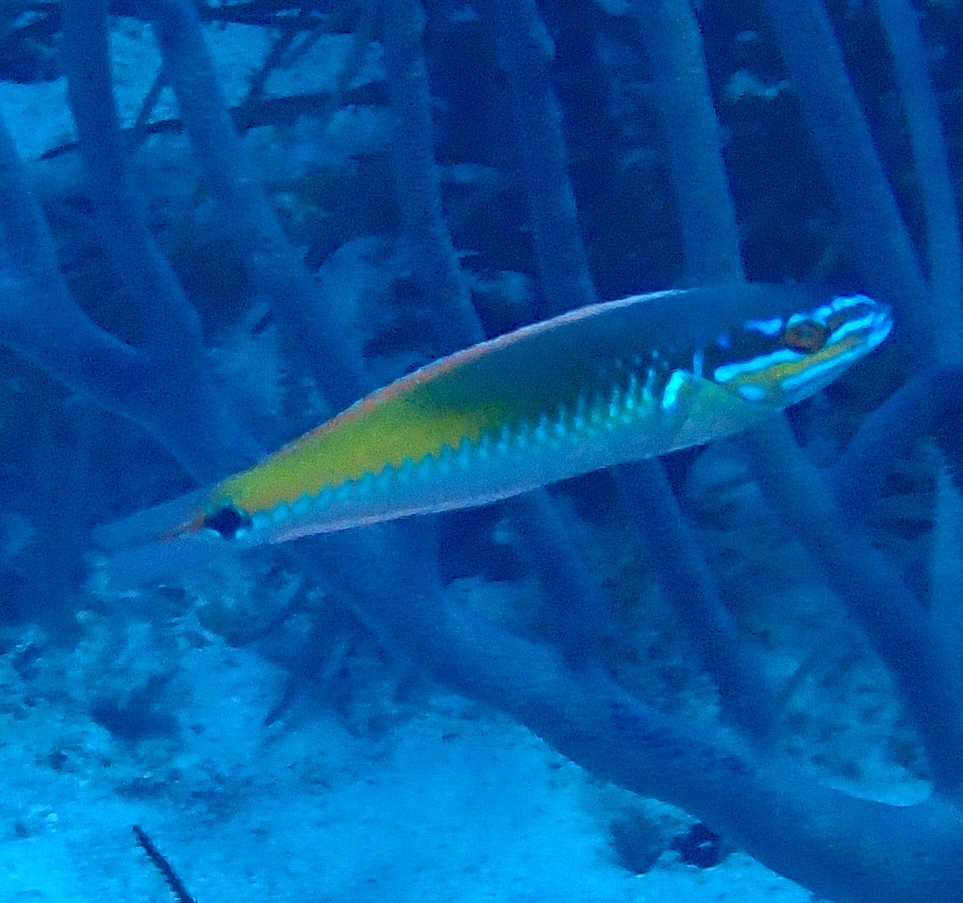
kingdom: Animalia
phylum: Chordata
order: Perciformes
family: Labridae
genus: Halichoeres
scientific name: Halichoeres pictus
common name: Rainbow wrasse
